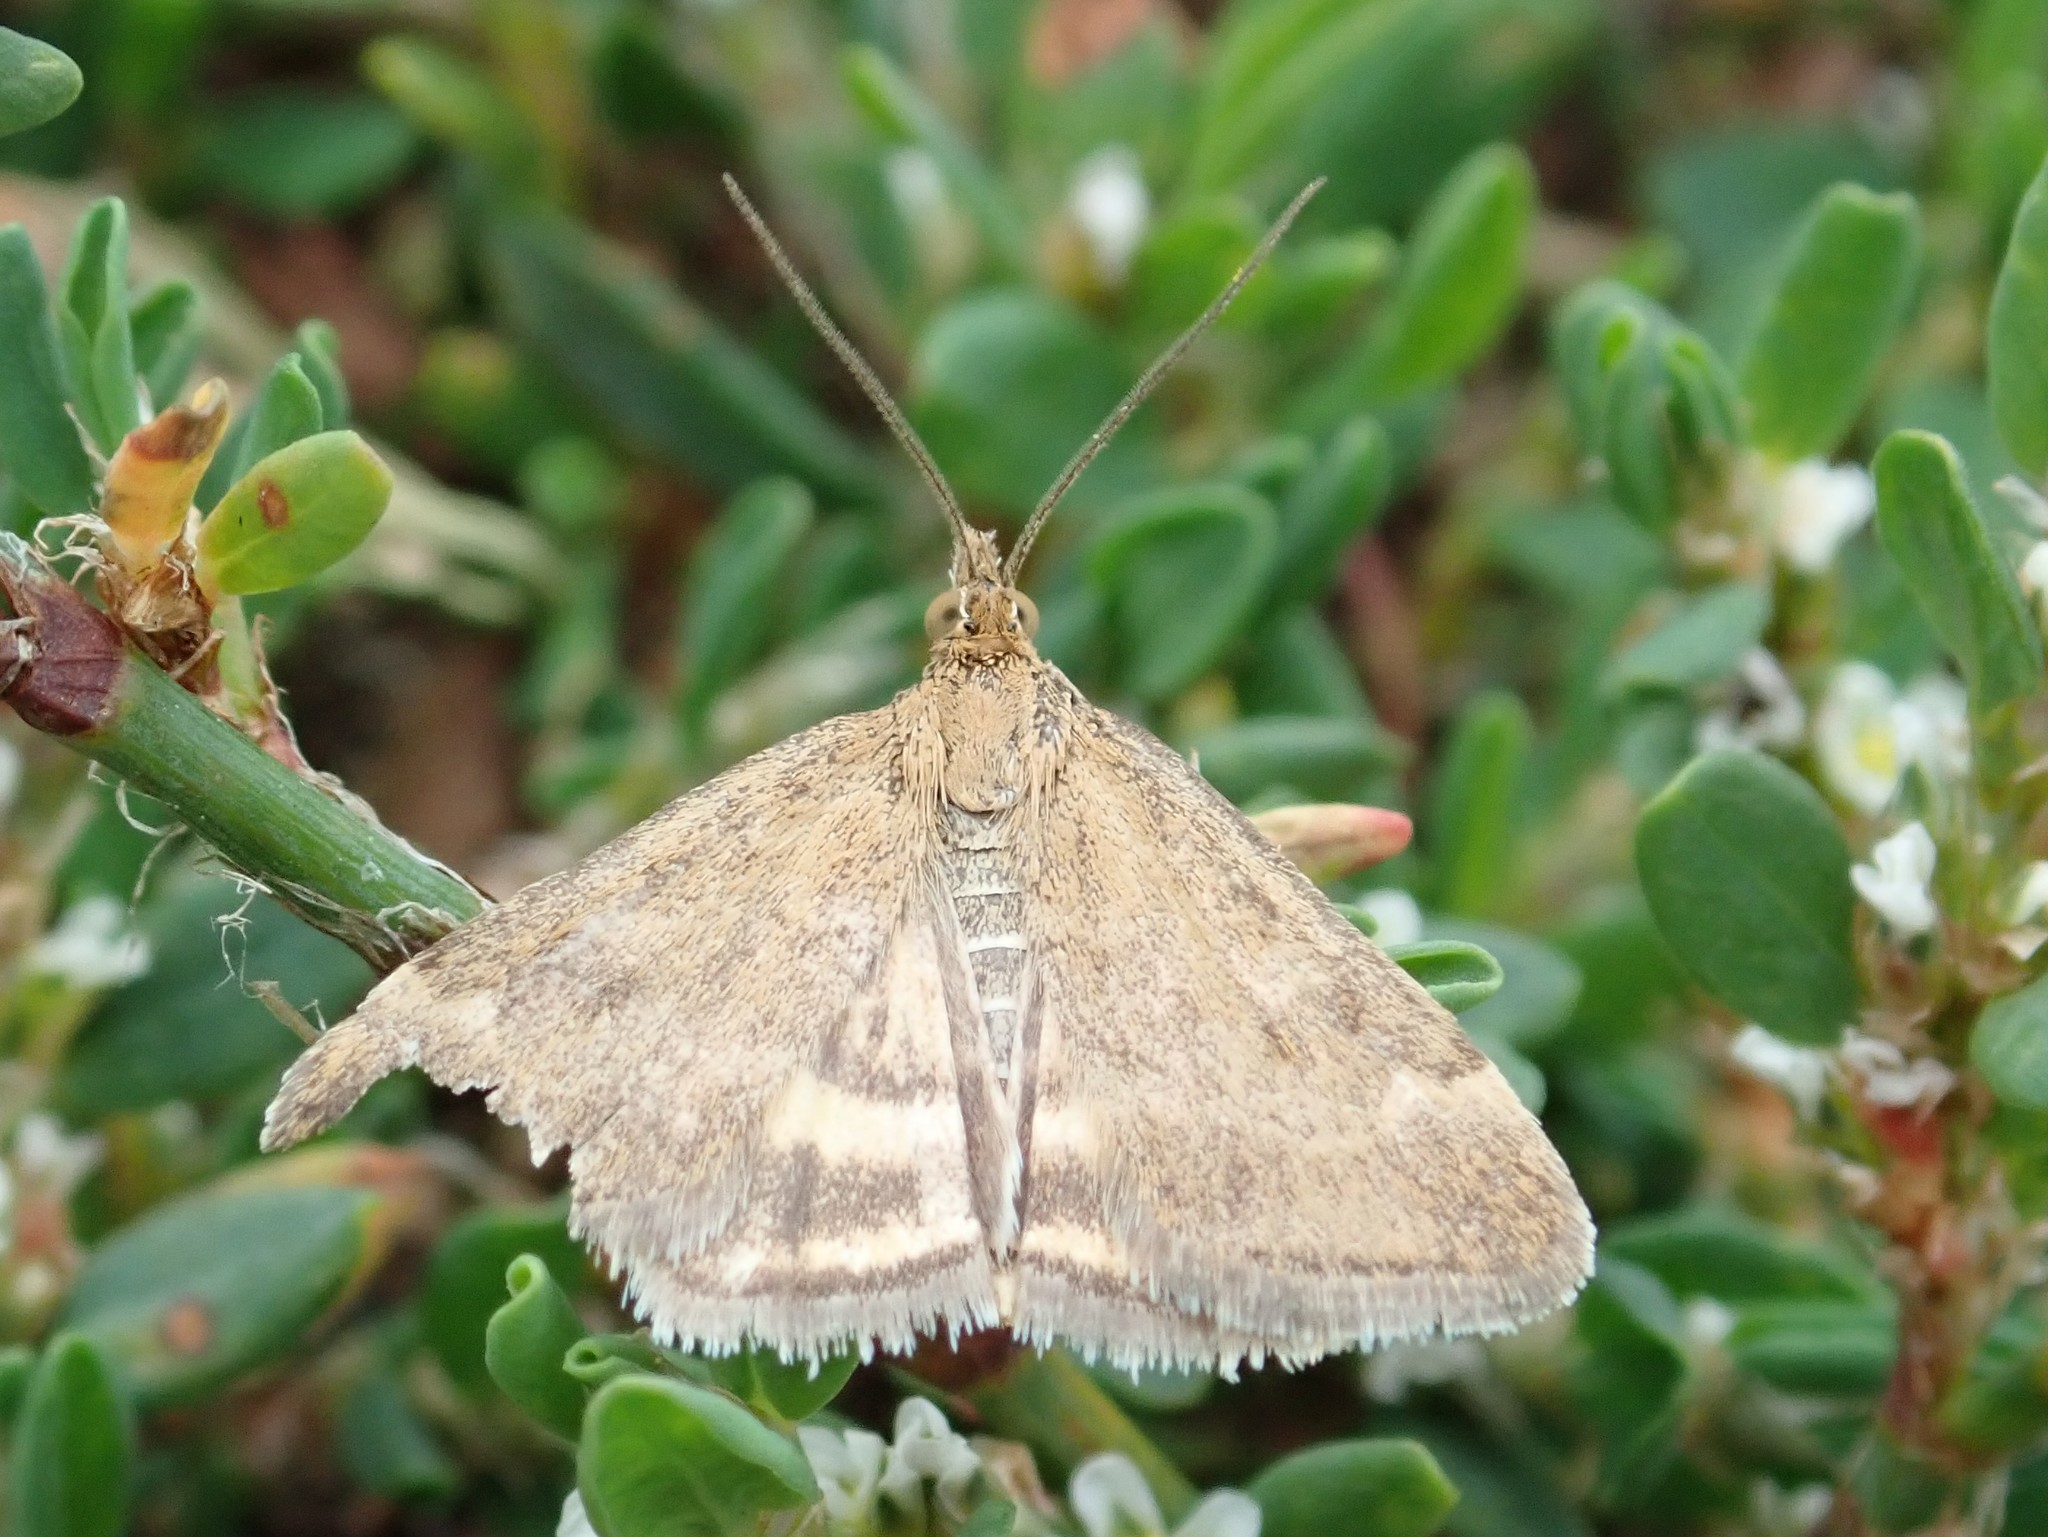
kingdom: Animalia
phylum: Arthropoda
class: Insecta
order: Lepidoptera
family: Crambidae
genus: Pyrausta
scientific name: Pyrausta despicata
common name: Straw-barred pearl
